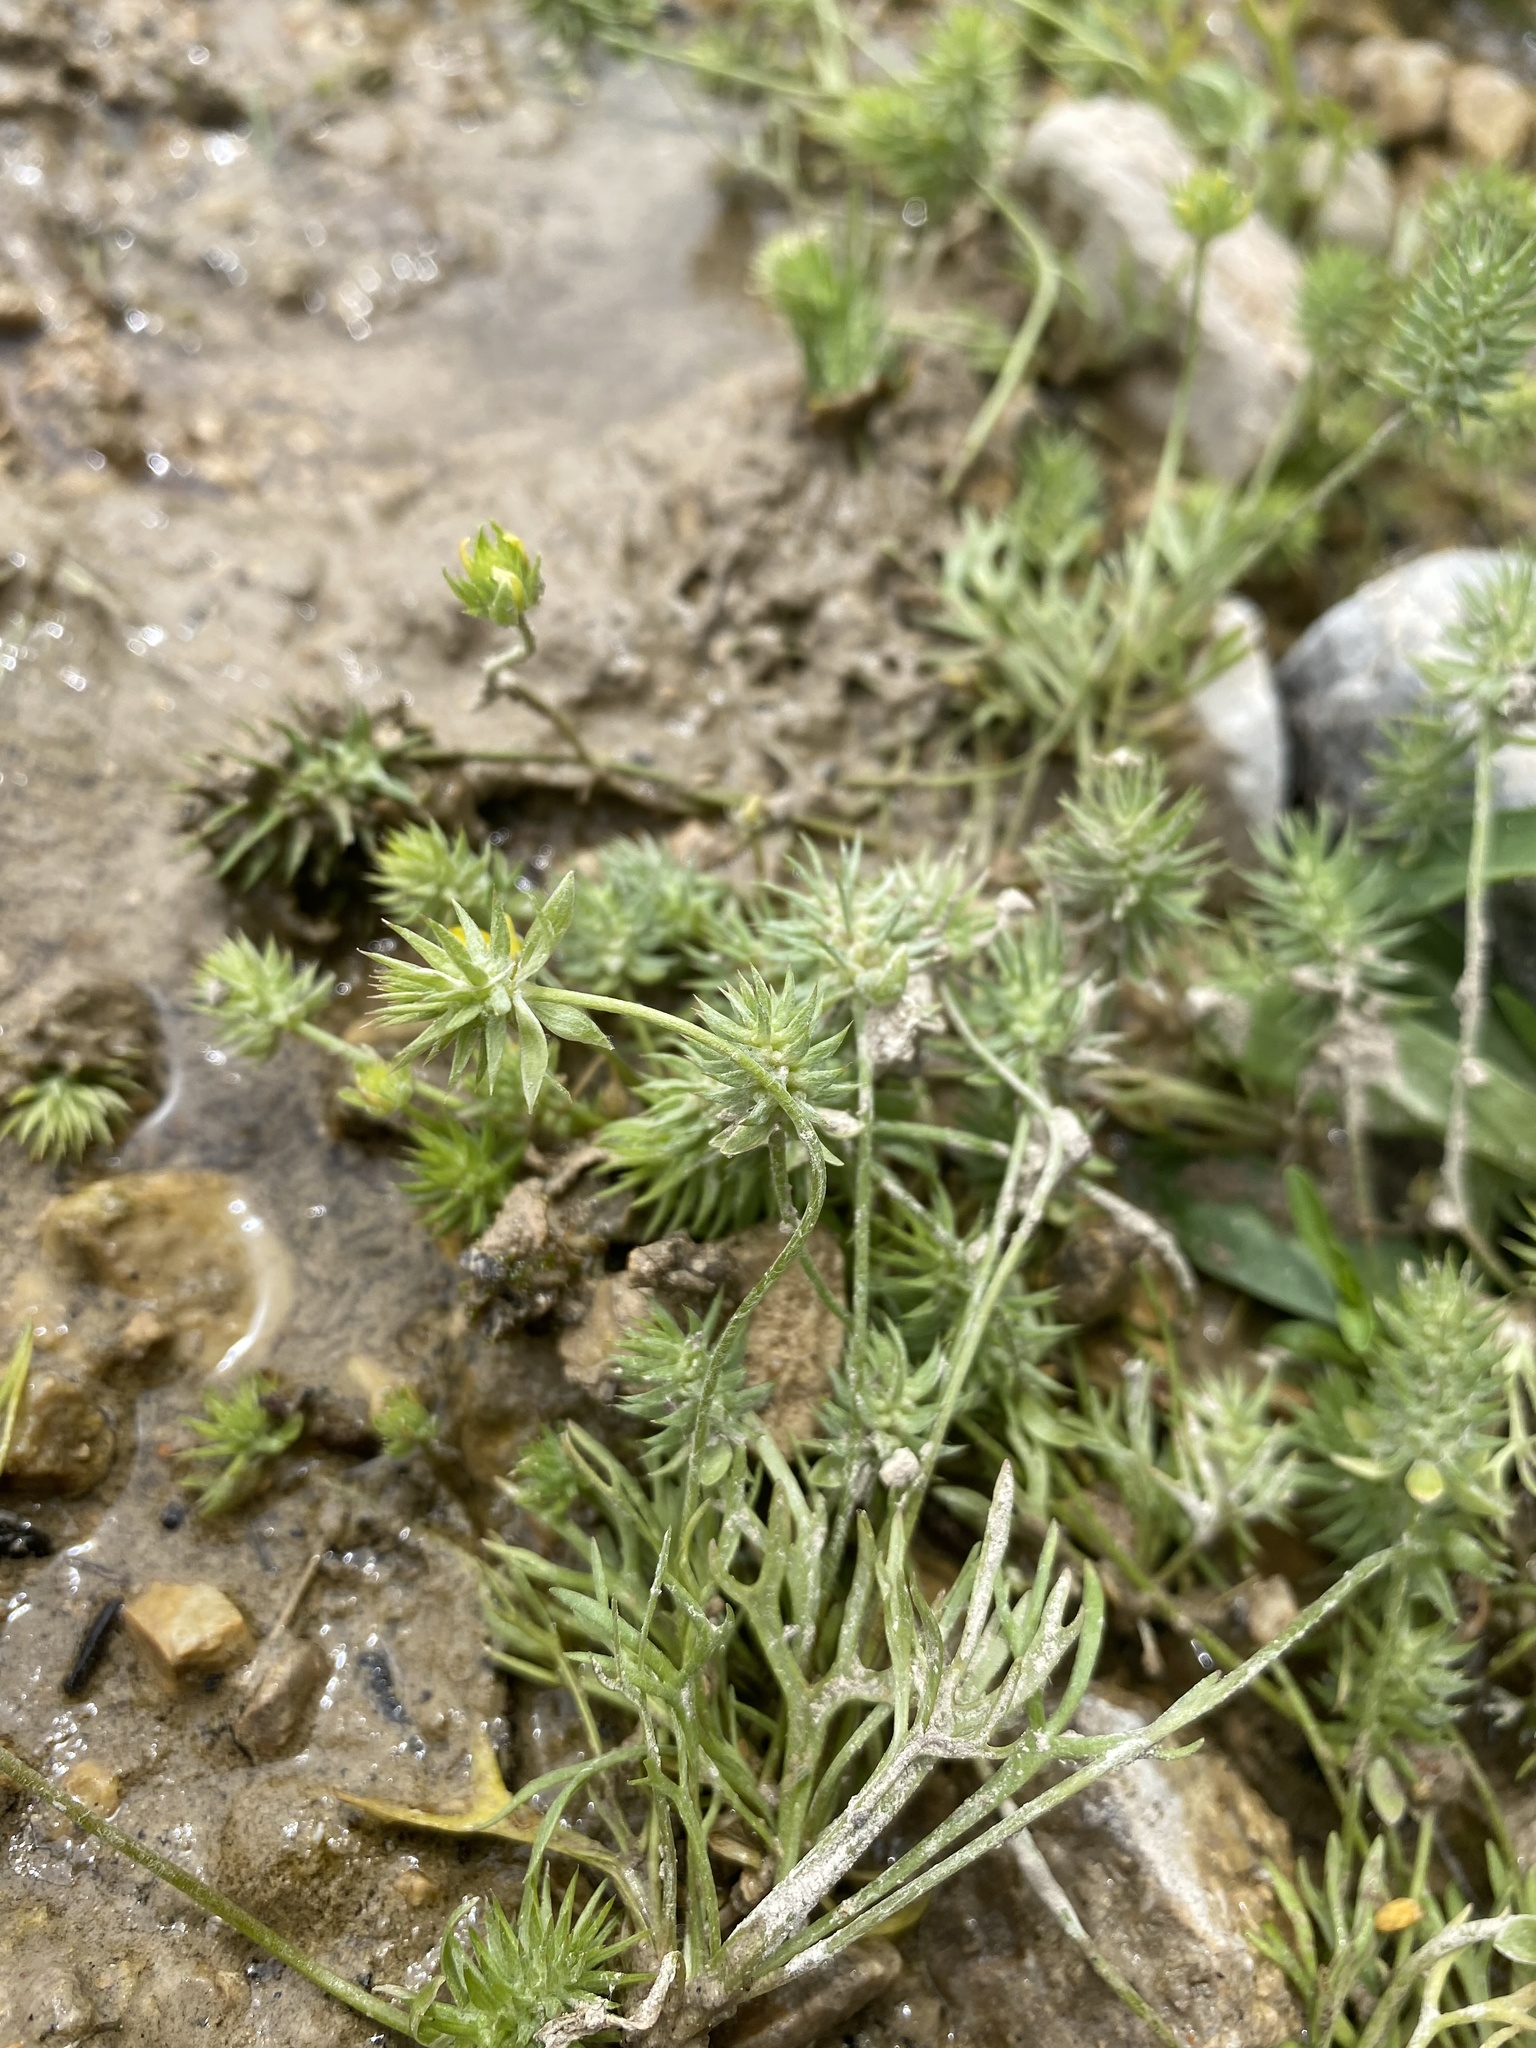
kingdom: Plantae
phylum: Tracheophyta
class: Magnoliopsida
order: Ranunculales
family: Ranunculaceae
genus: Ceratocephala
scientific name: Ceratocephala orthoceras
